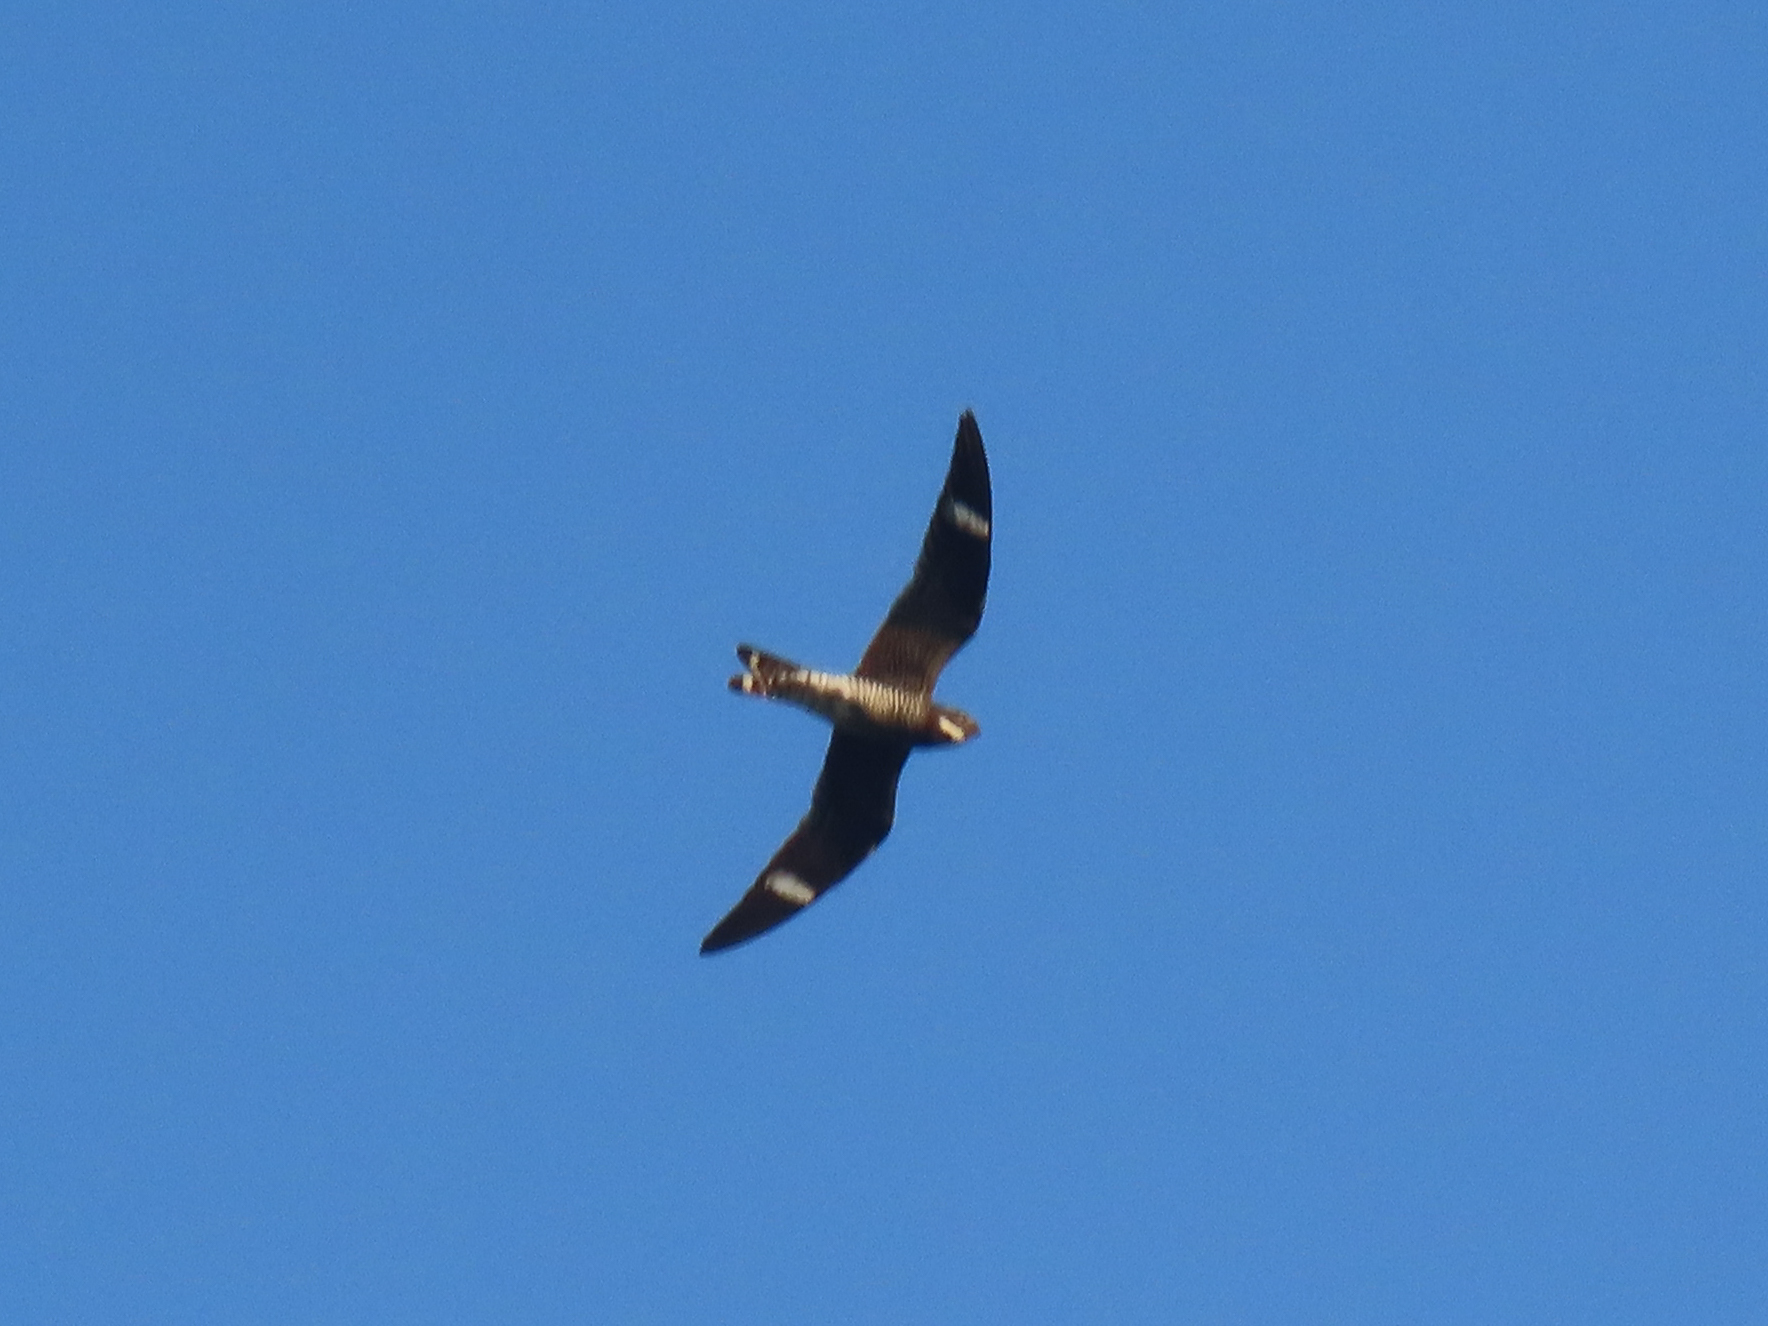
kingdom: Animalia
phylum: Chordata
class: Aves
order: Caprimulgiformes
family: Caprimulgidae
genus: Chordeiles
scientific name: Chordeiles minor
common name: Common nighthawk
